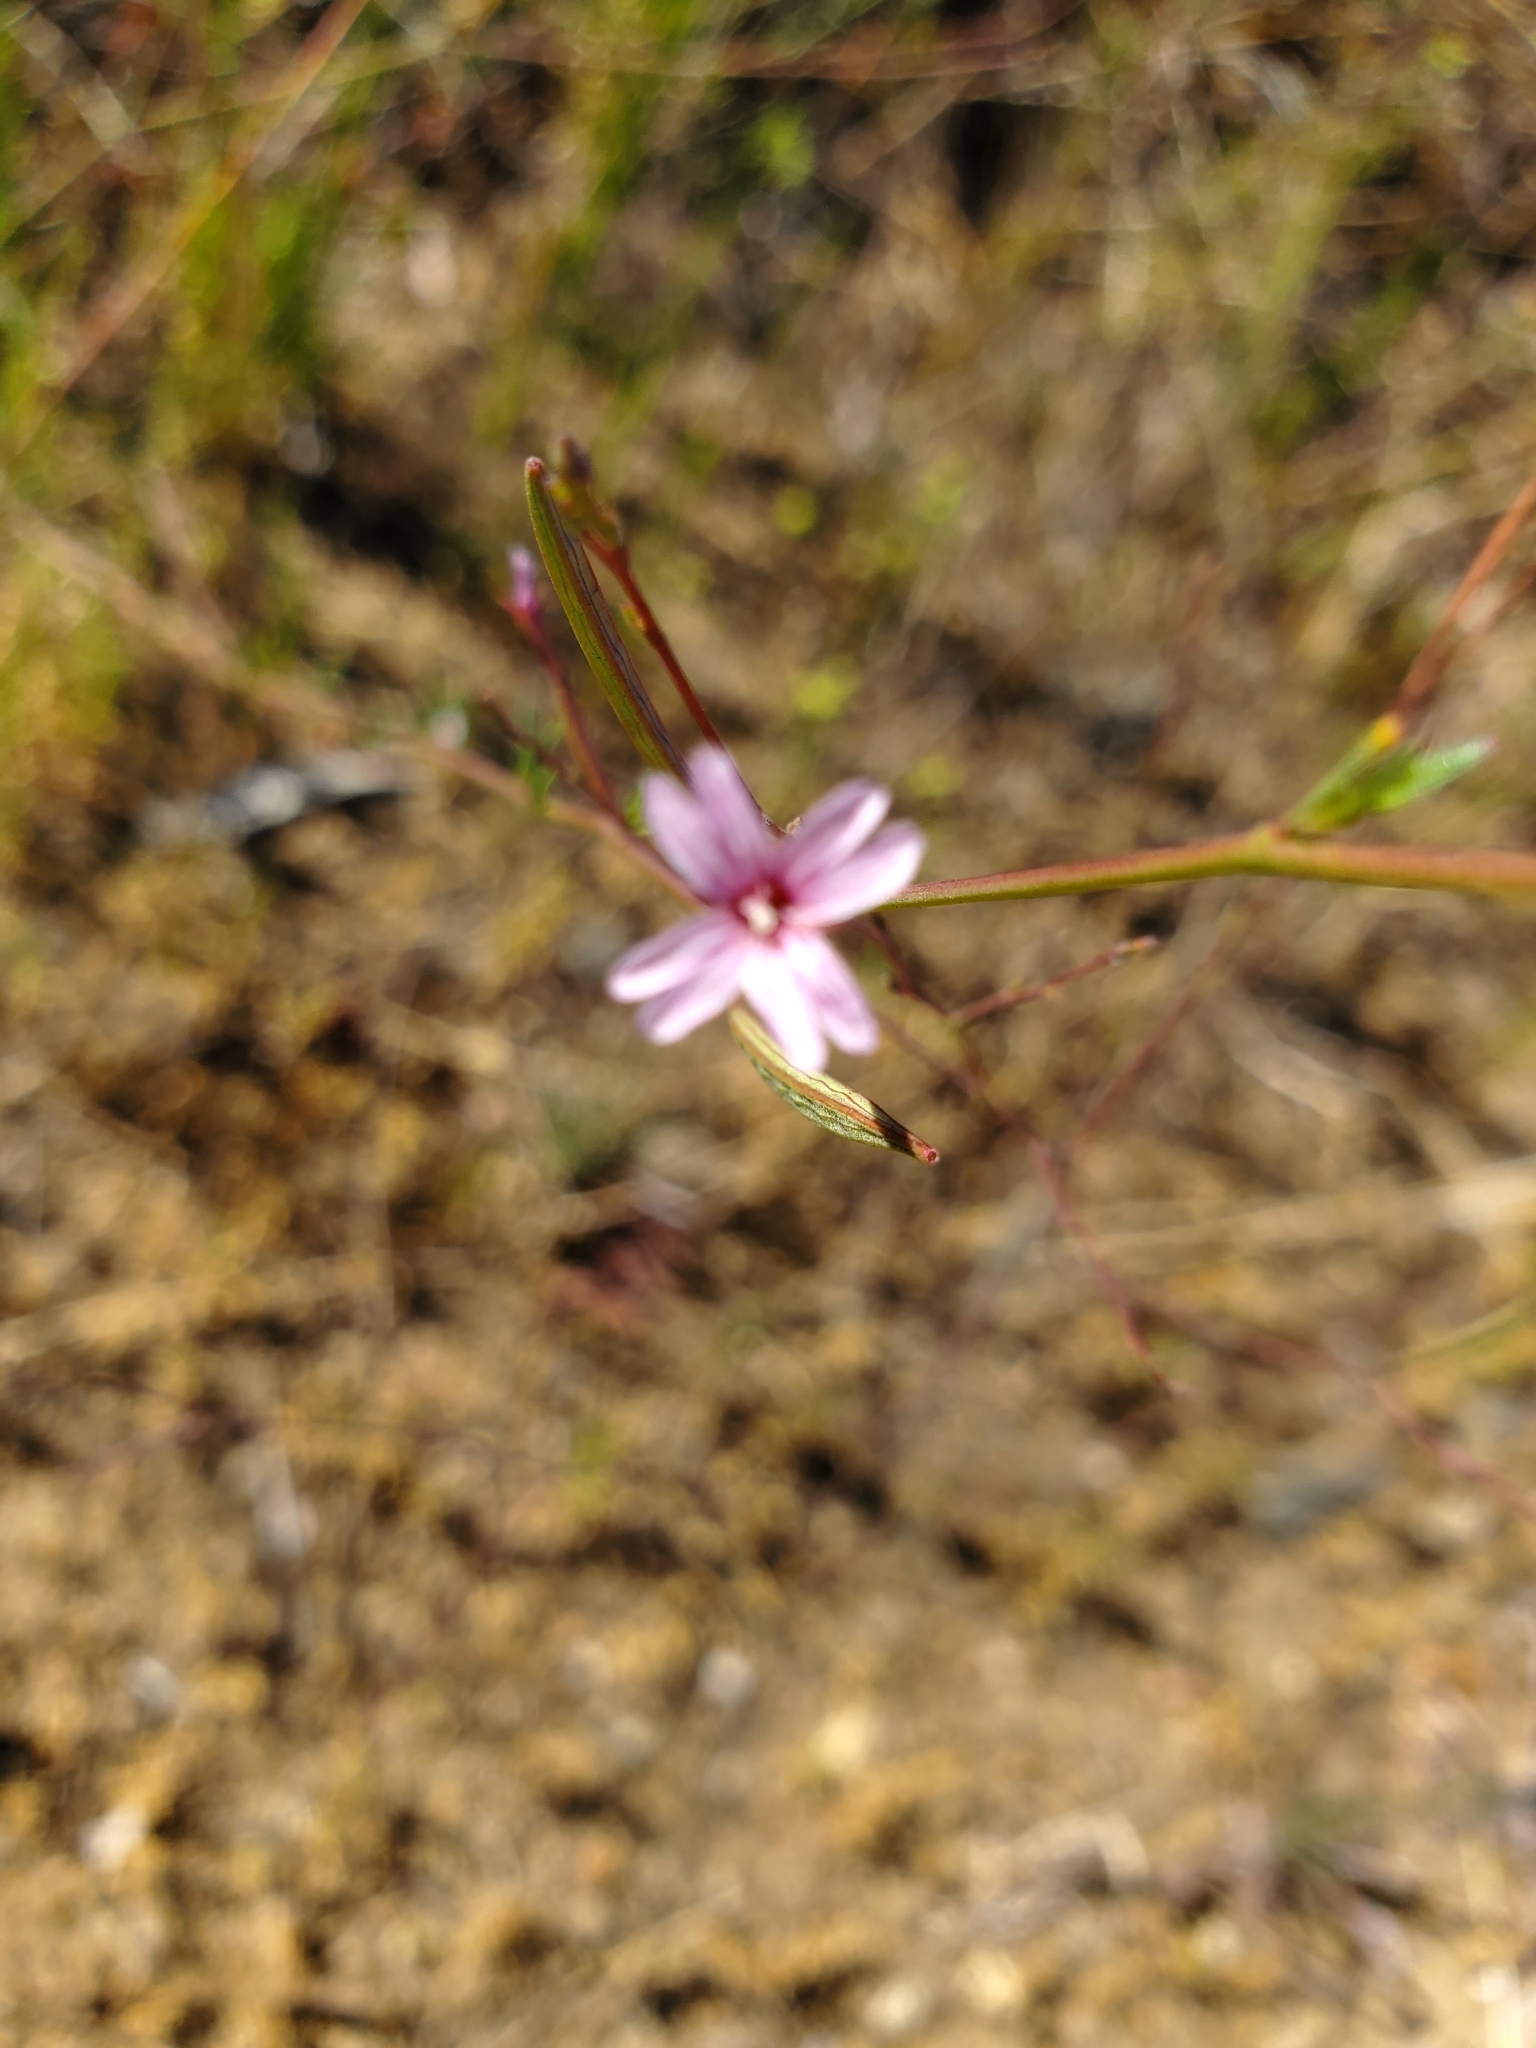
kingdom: Plantae
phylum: Tracheophyta
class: Magnoliopsida
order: Myrtales
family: Onagraceae
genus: Epilobium
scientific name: Epilobium brachycarpum
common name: Annual willowherb
